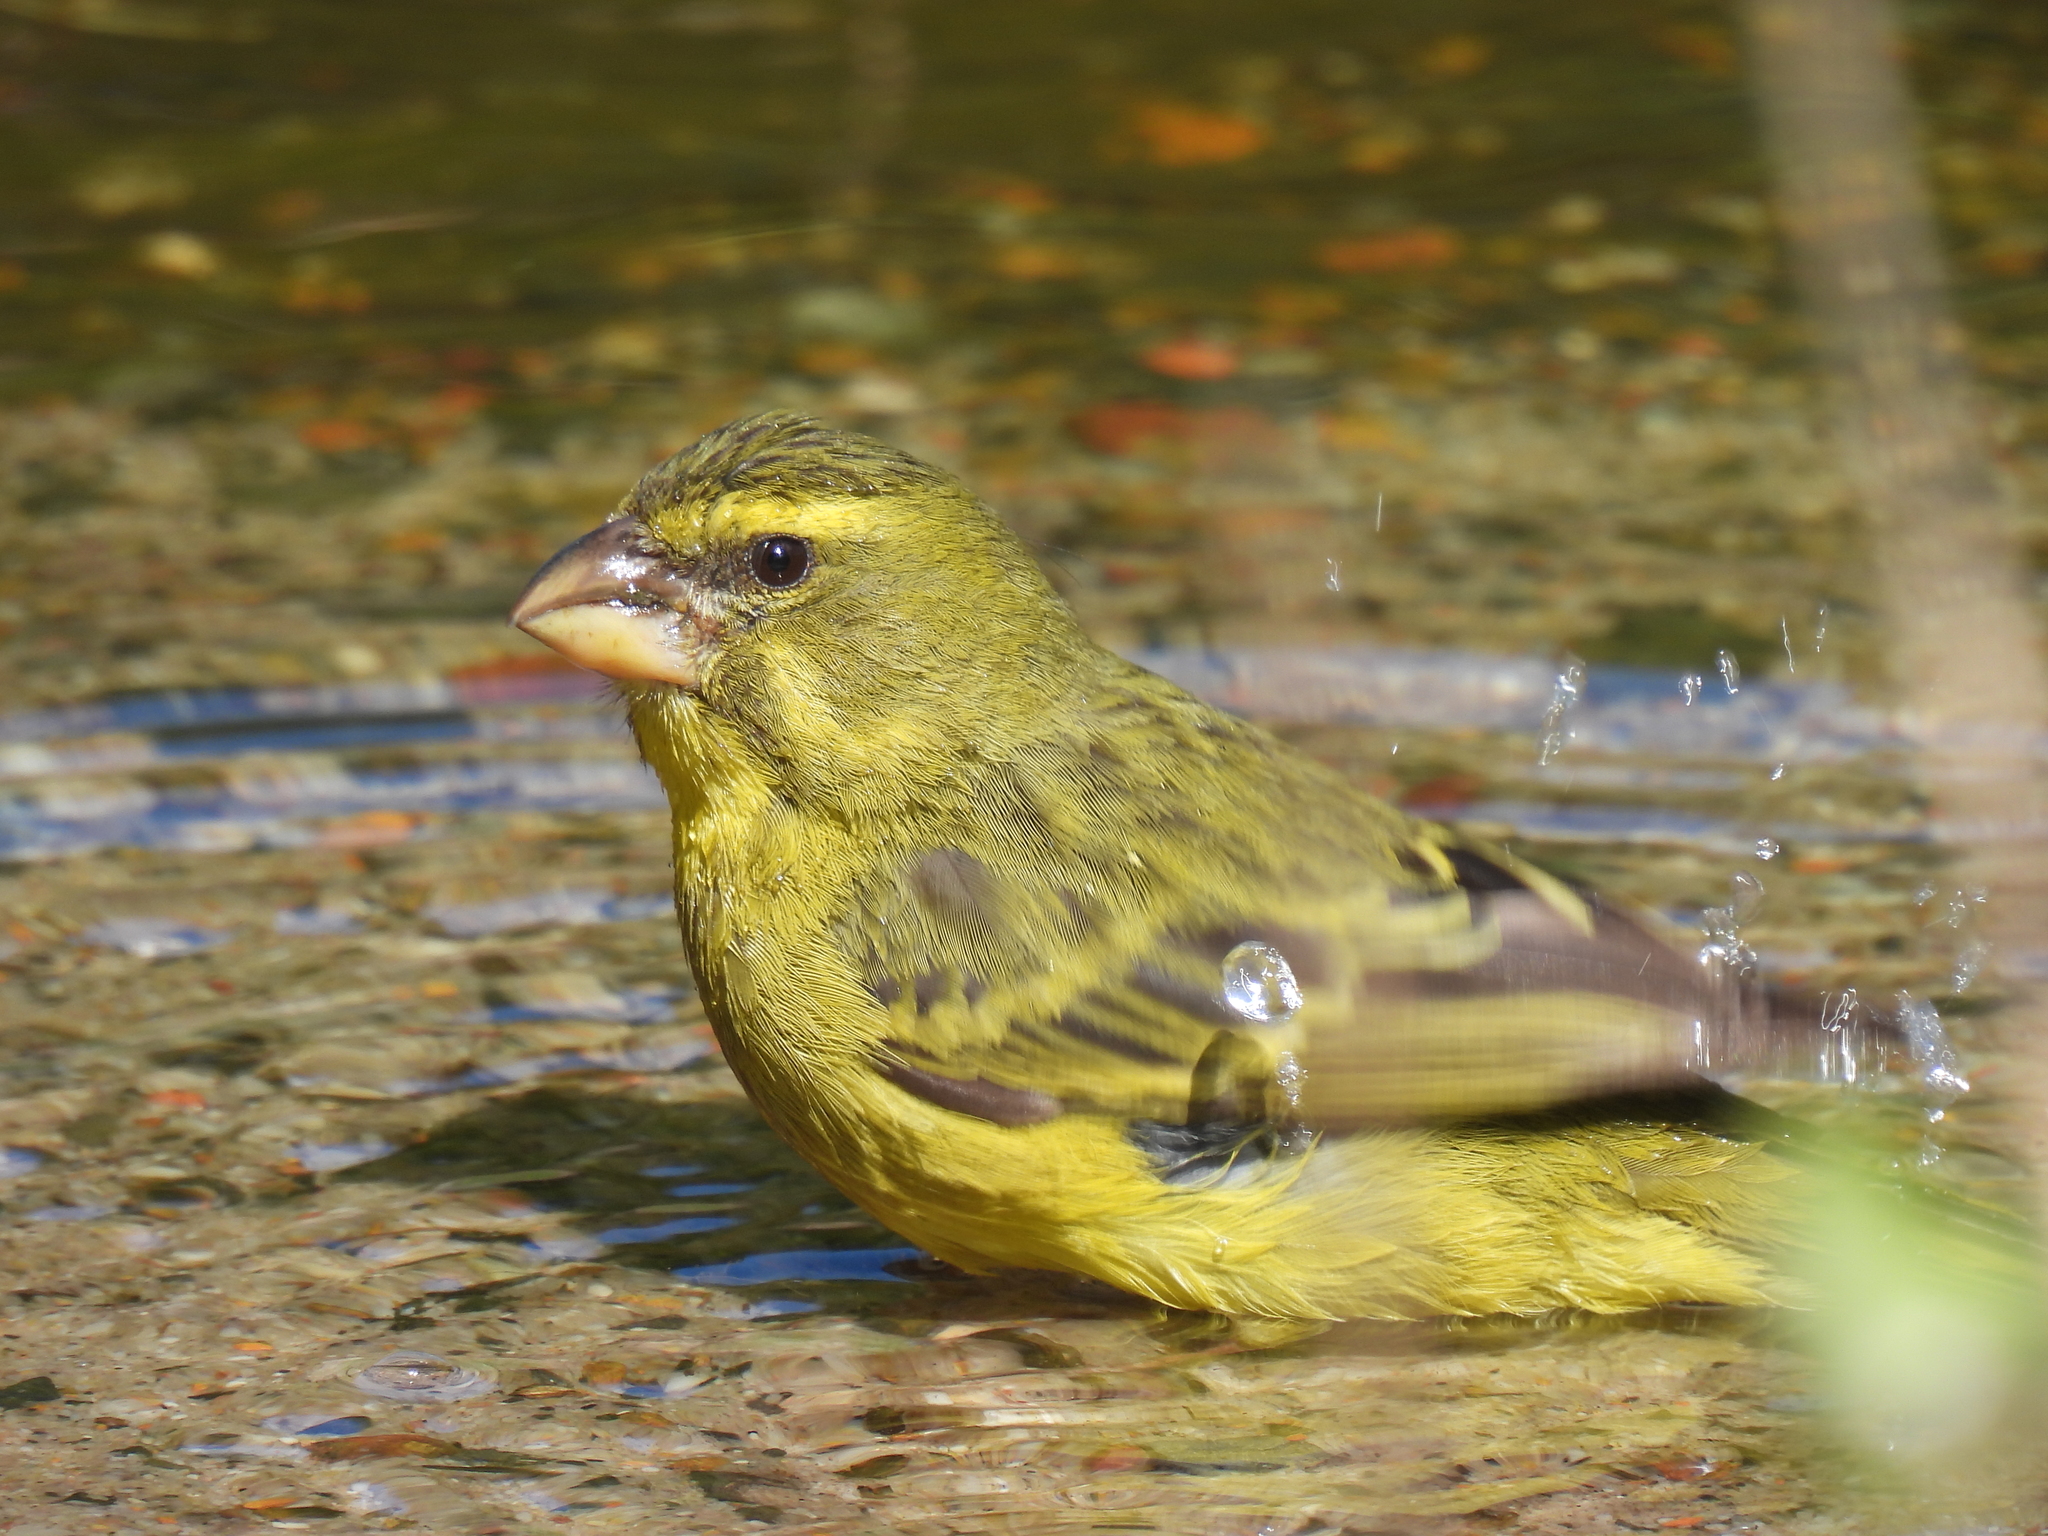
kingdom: Animalia
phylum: Chordata
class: Aves
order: Passeriformes
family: Fringillidae
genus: Crithagra
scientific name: Crithagra sulphurata
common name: Brimstone canary
